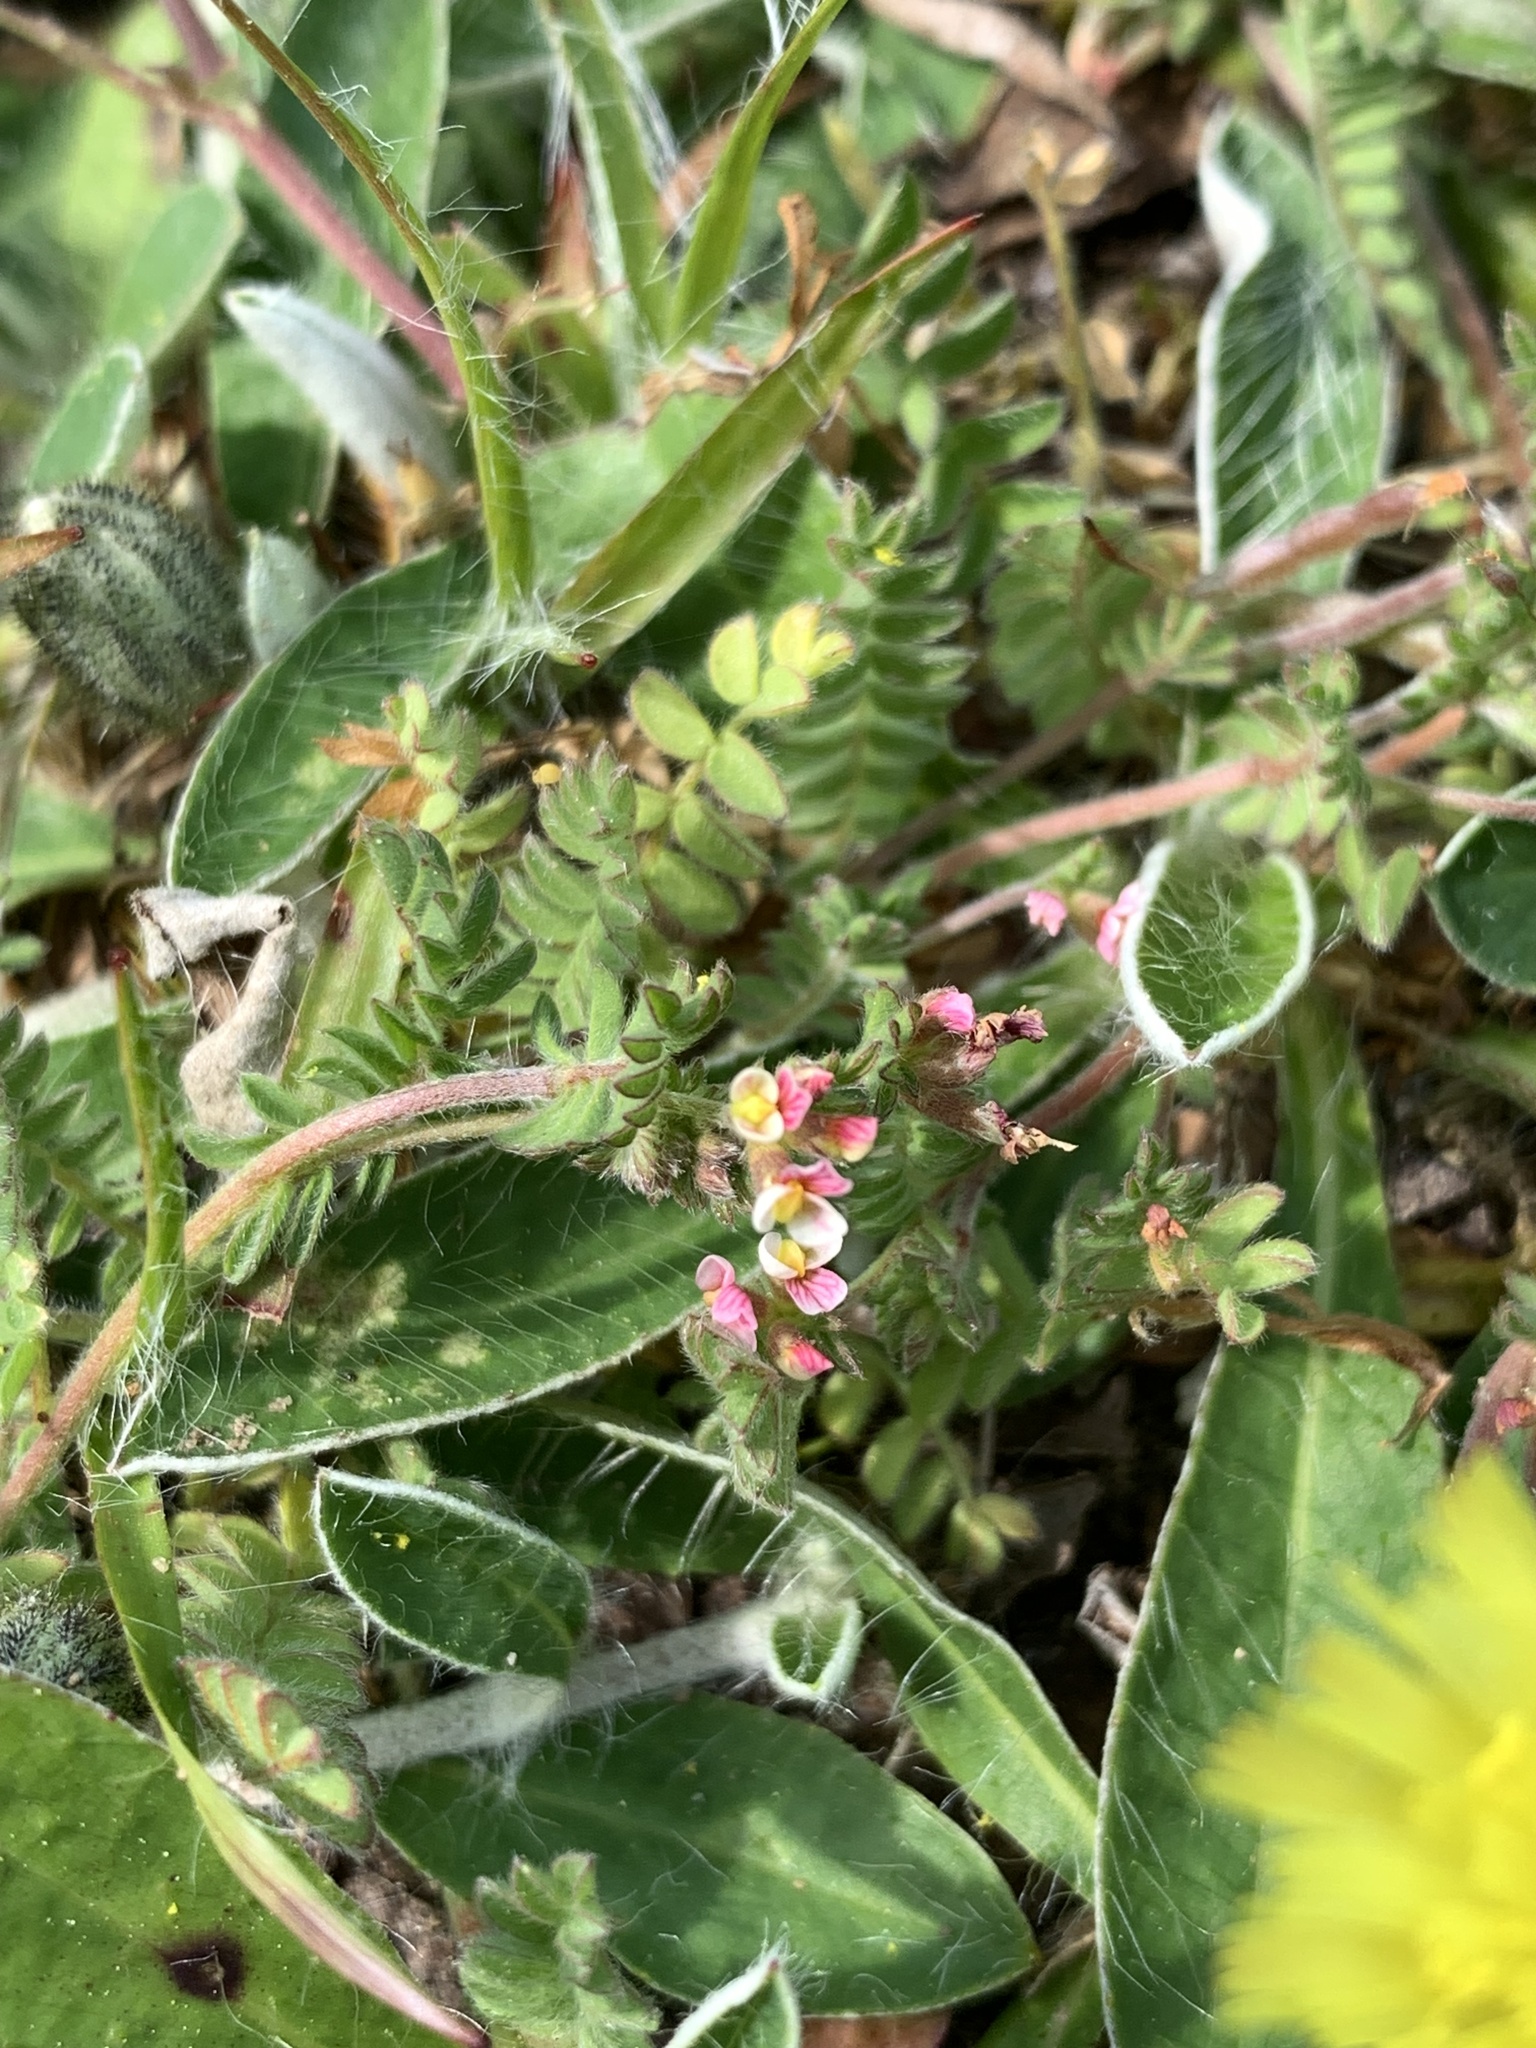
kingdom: Plantae
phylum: Tracheophyta
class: Magnoliopsida
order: Fabales
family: Fabaceae
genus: Ornithopus
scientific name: Ornithopus perpusillus
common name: Bird's-foot
